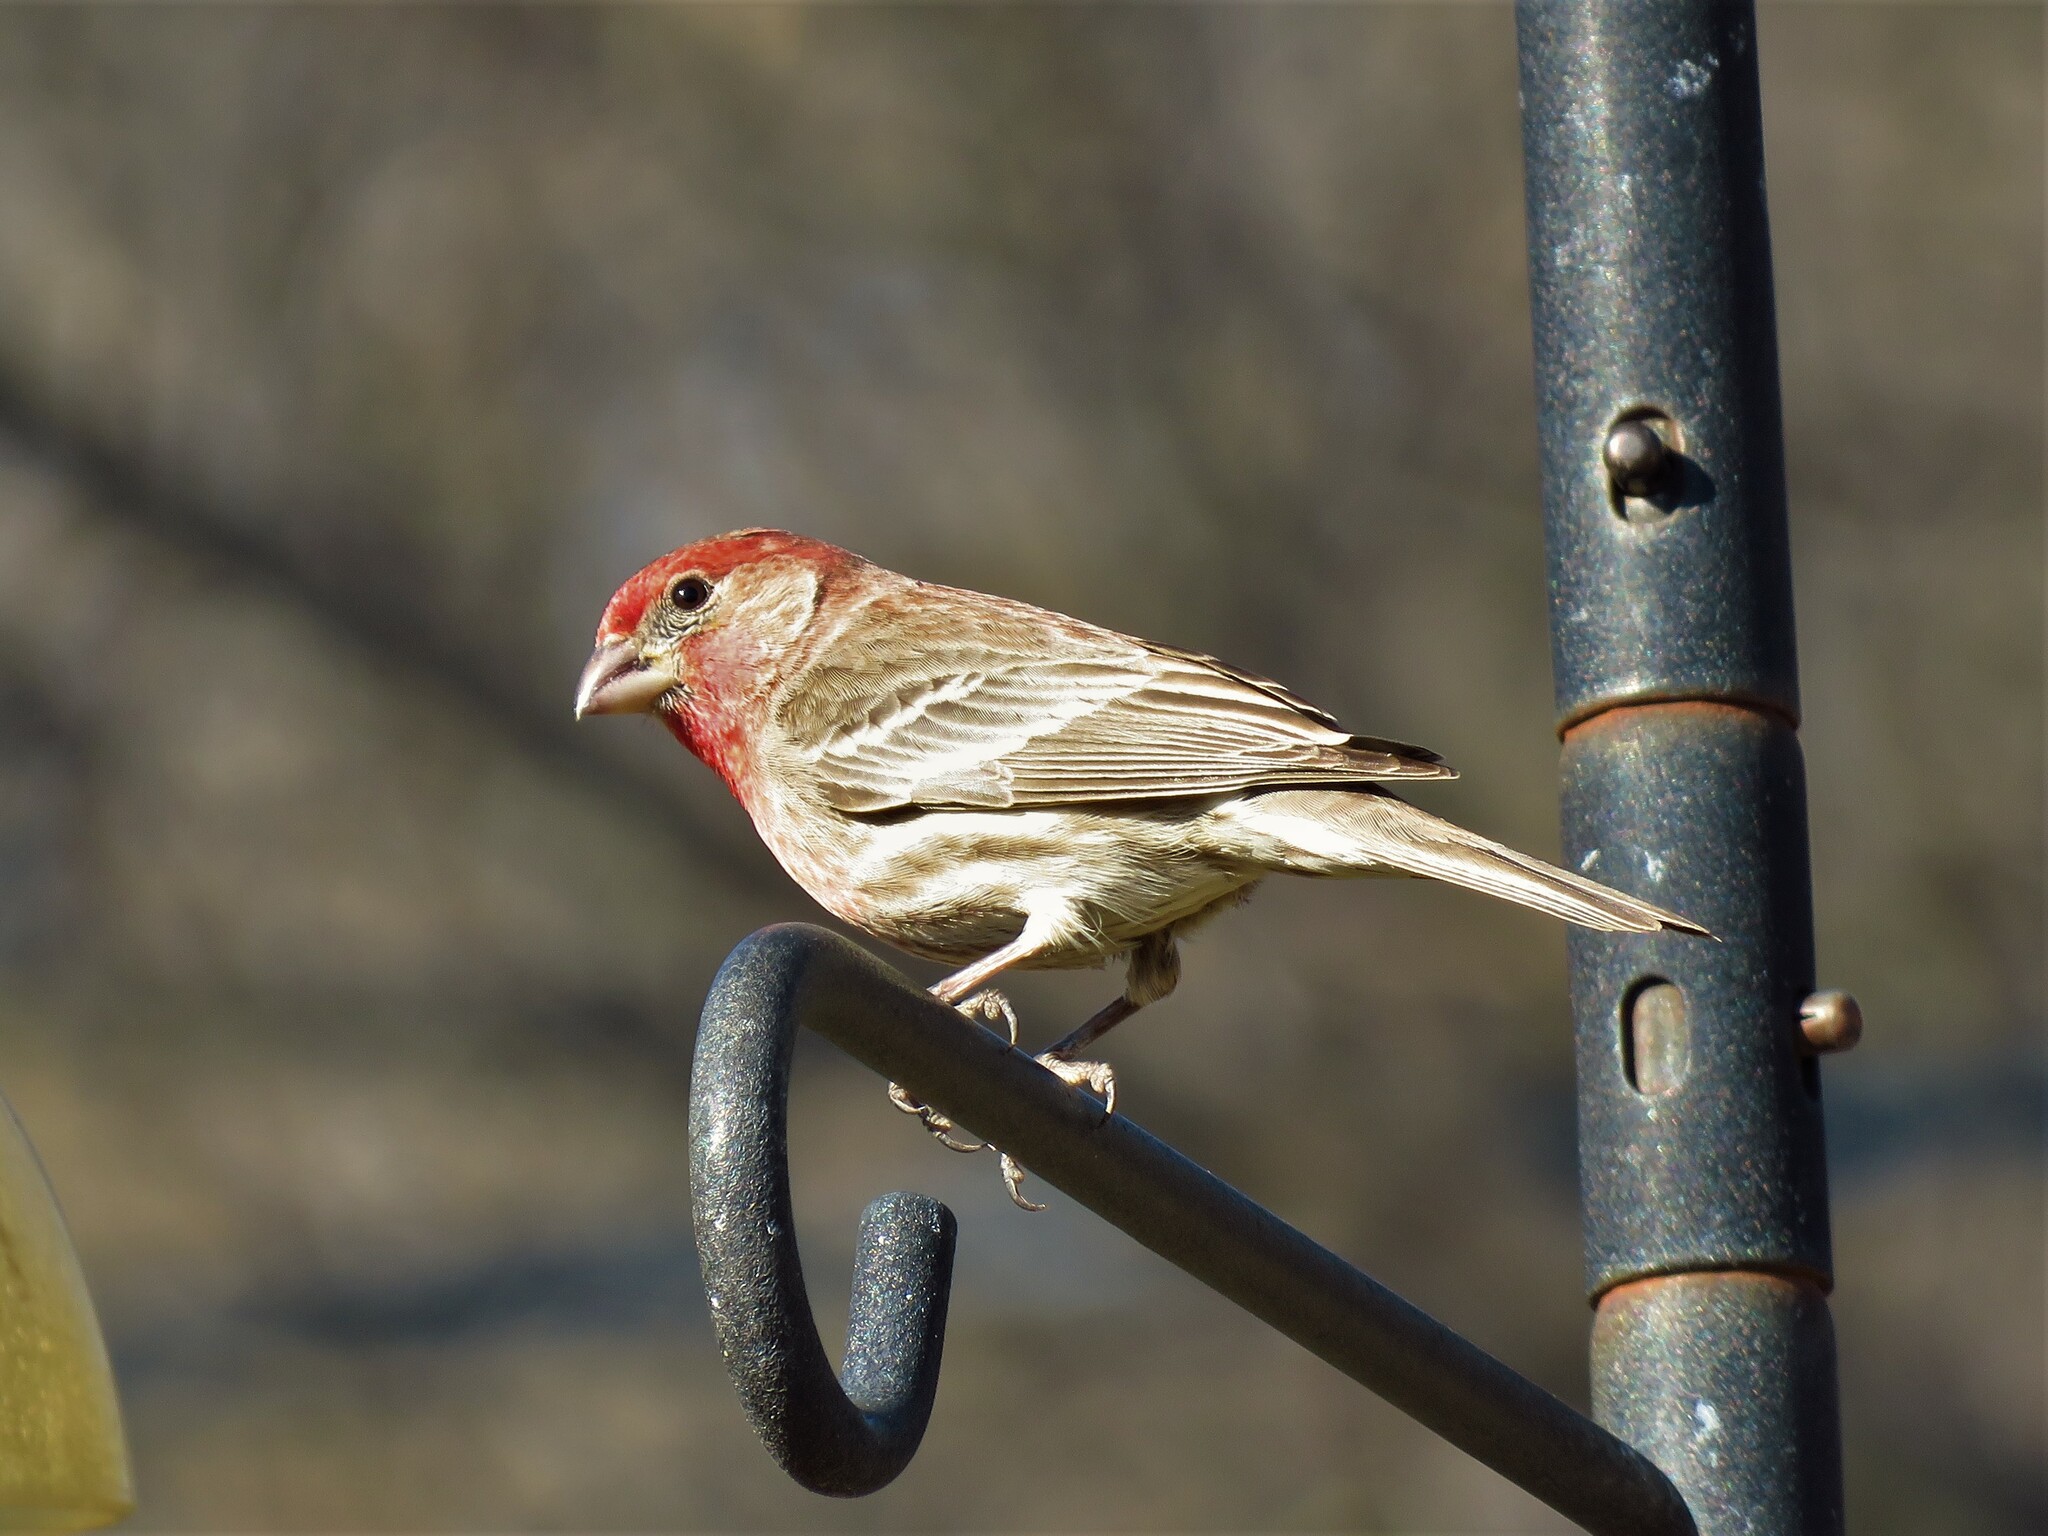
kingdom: Animalia
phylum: Chordata
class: Aves
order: Passeriformes
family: Fringillidae
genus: Haemorhous
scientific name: Haemorhous mexicanus
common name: House finch
